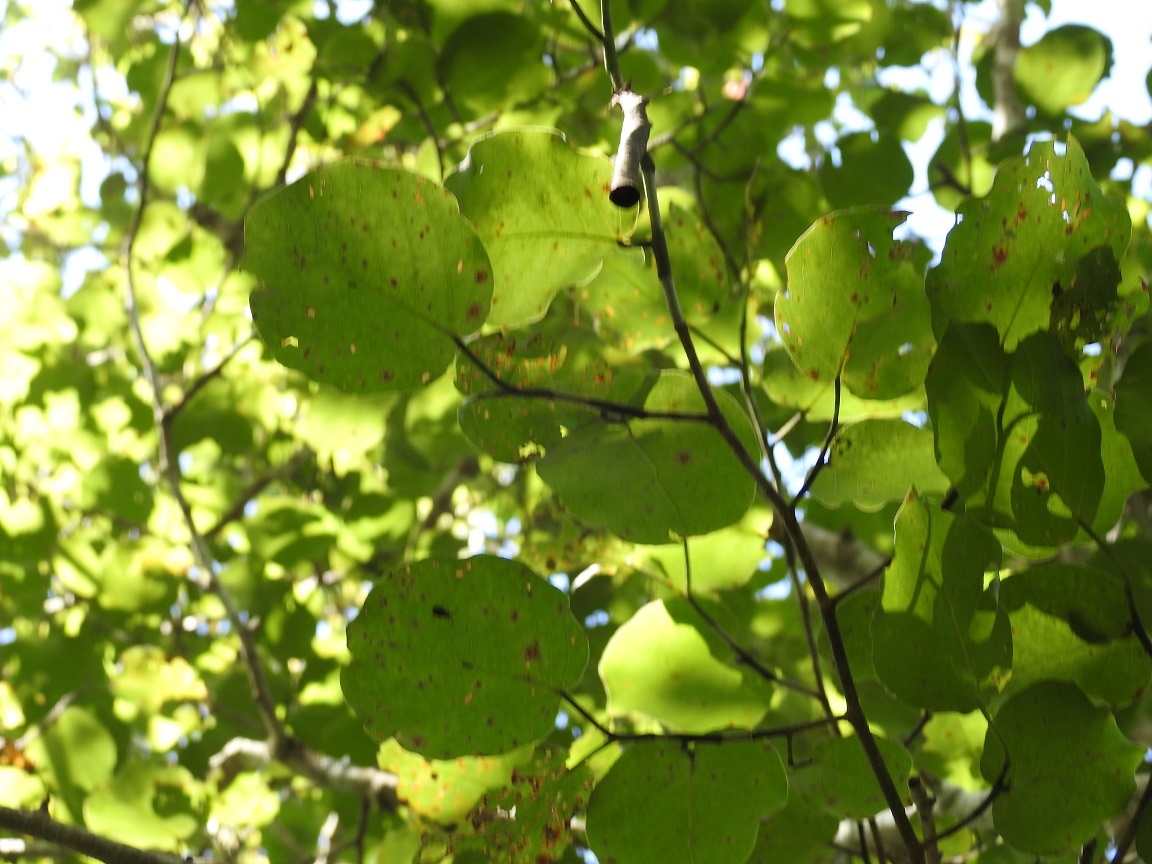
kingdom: Plantae
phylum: Tracheophyta
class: Magnoliopsida
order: Caryophyllales
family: Polygonaceae
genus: Coccoloba
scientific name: Coccoloba acapulcensis
